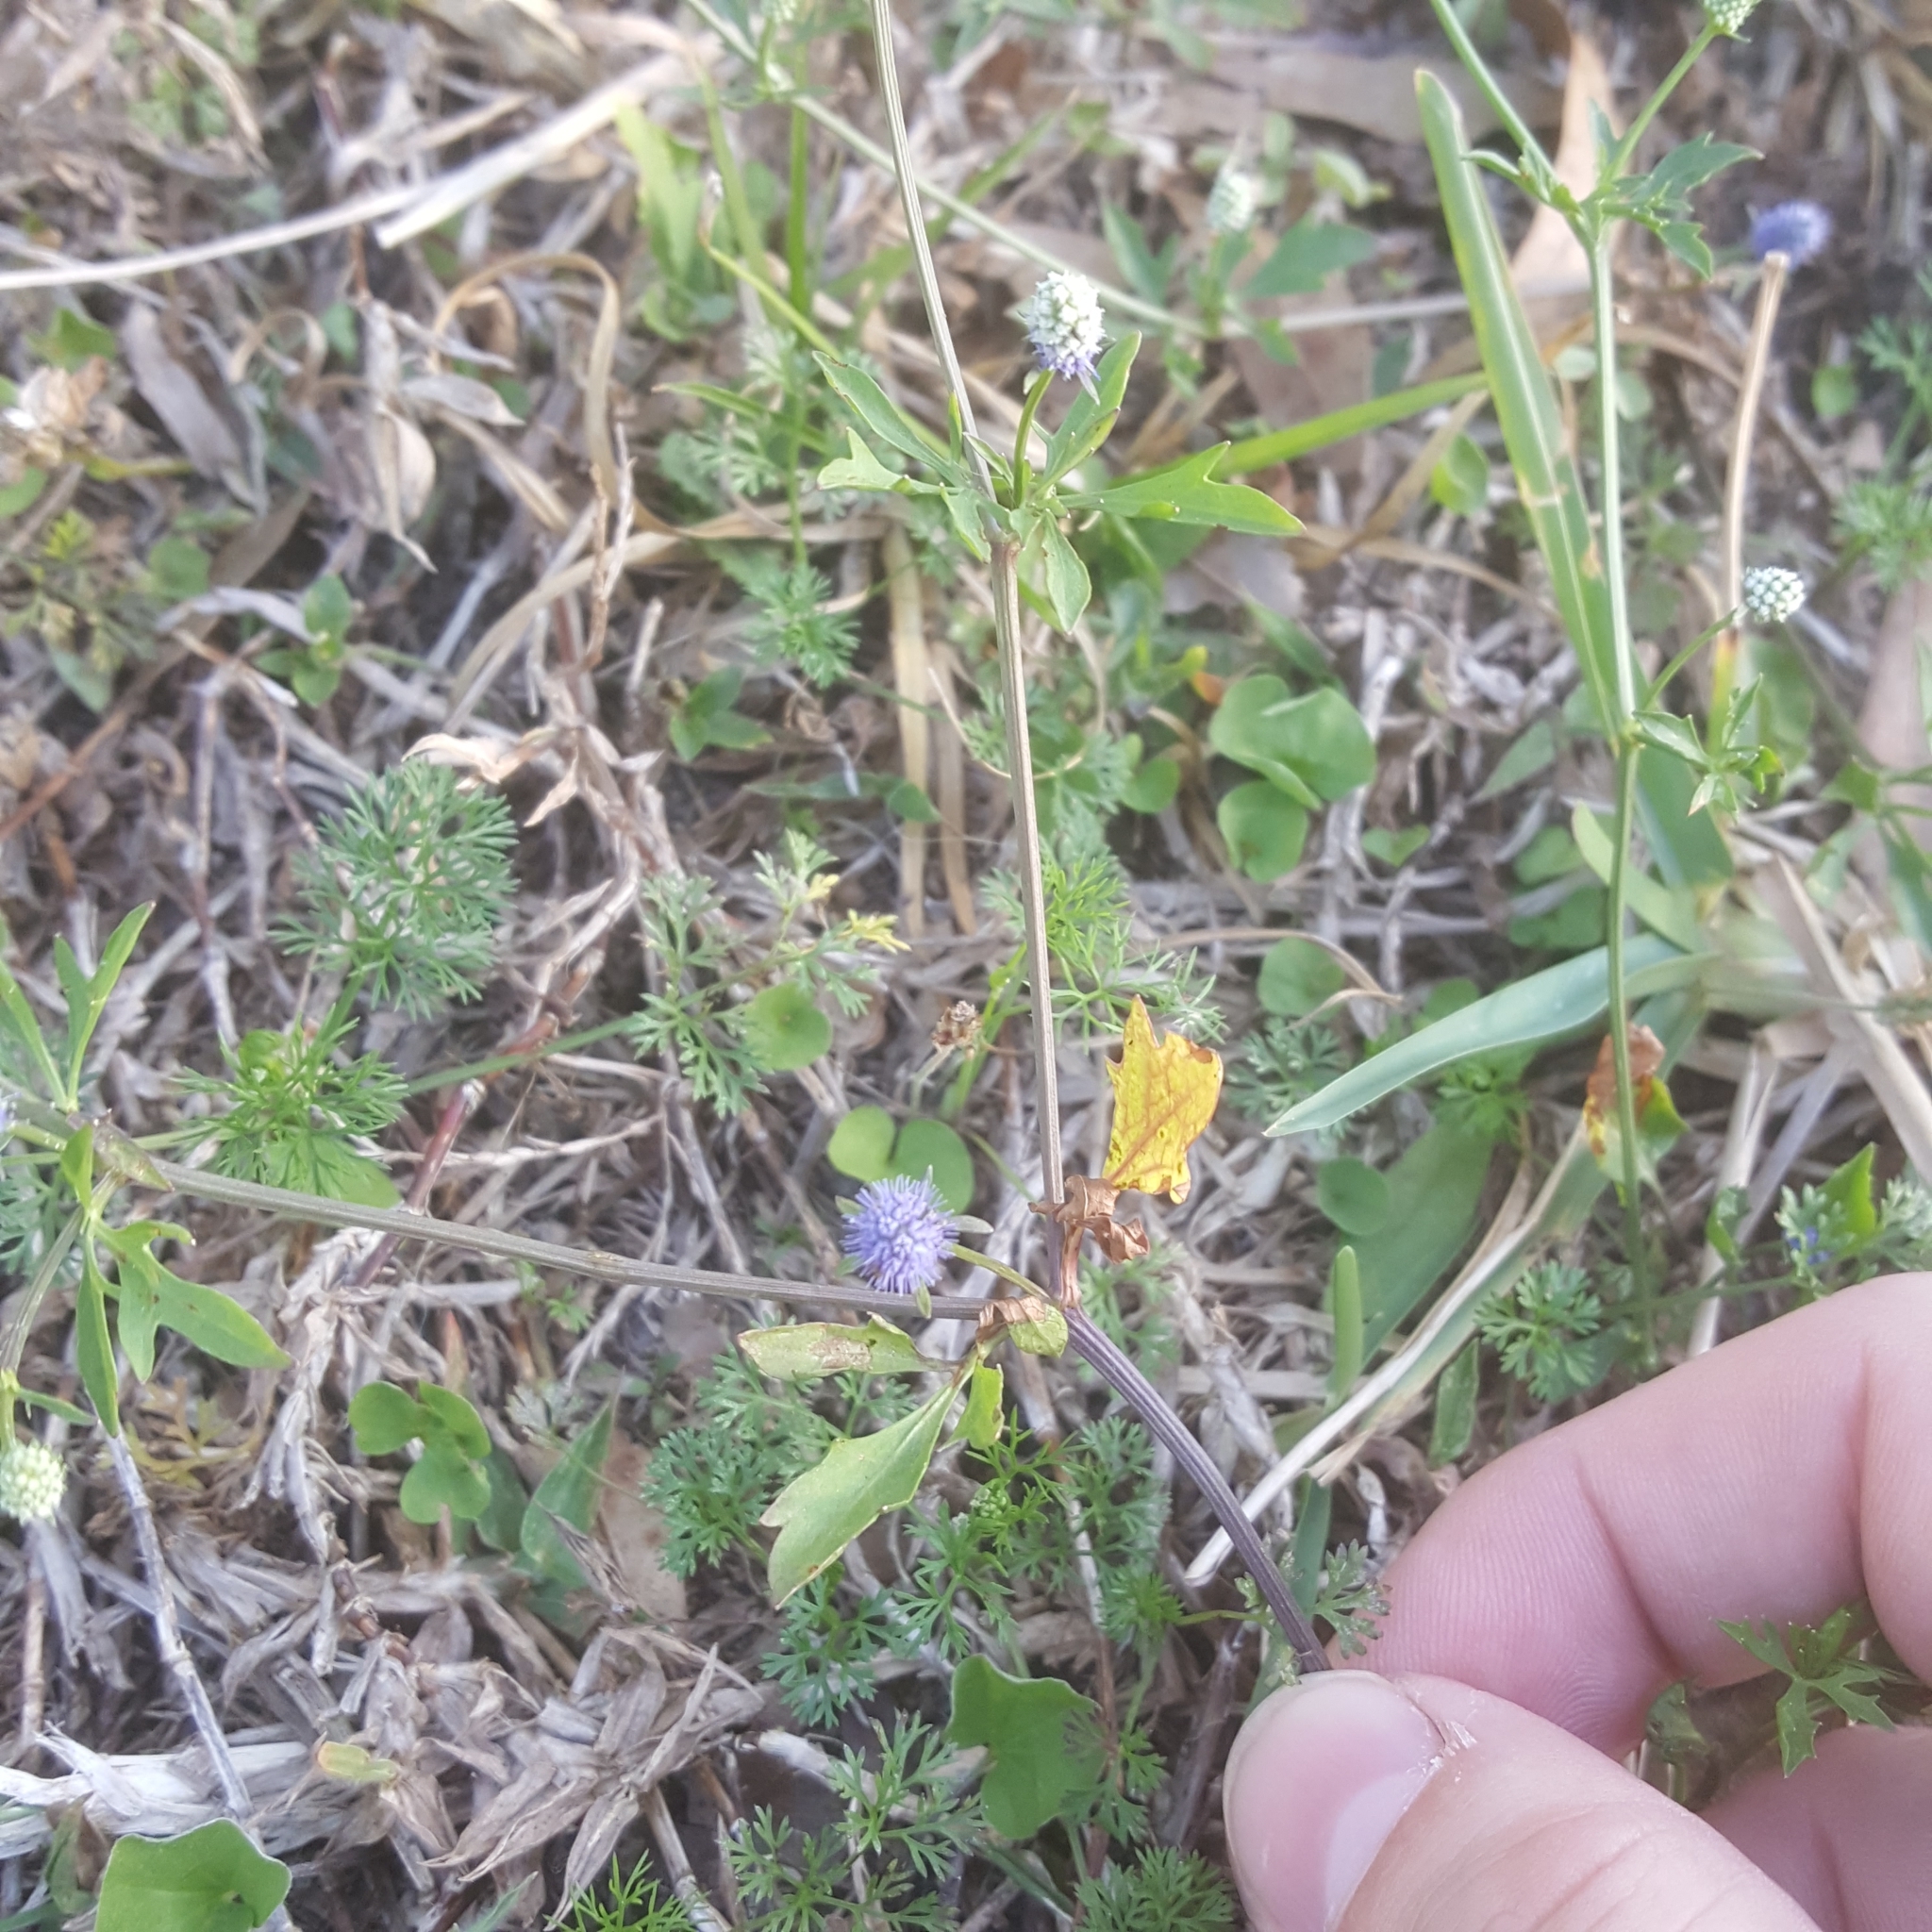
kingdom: Plantae
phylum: Tracheophyta
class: Magnoliopsida
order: Apiales
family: Apiaceae
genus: Eryngium
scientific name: Eryngium baldwinii
